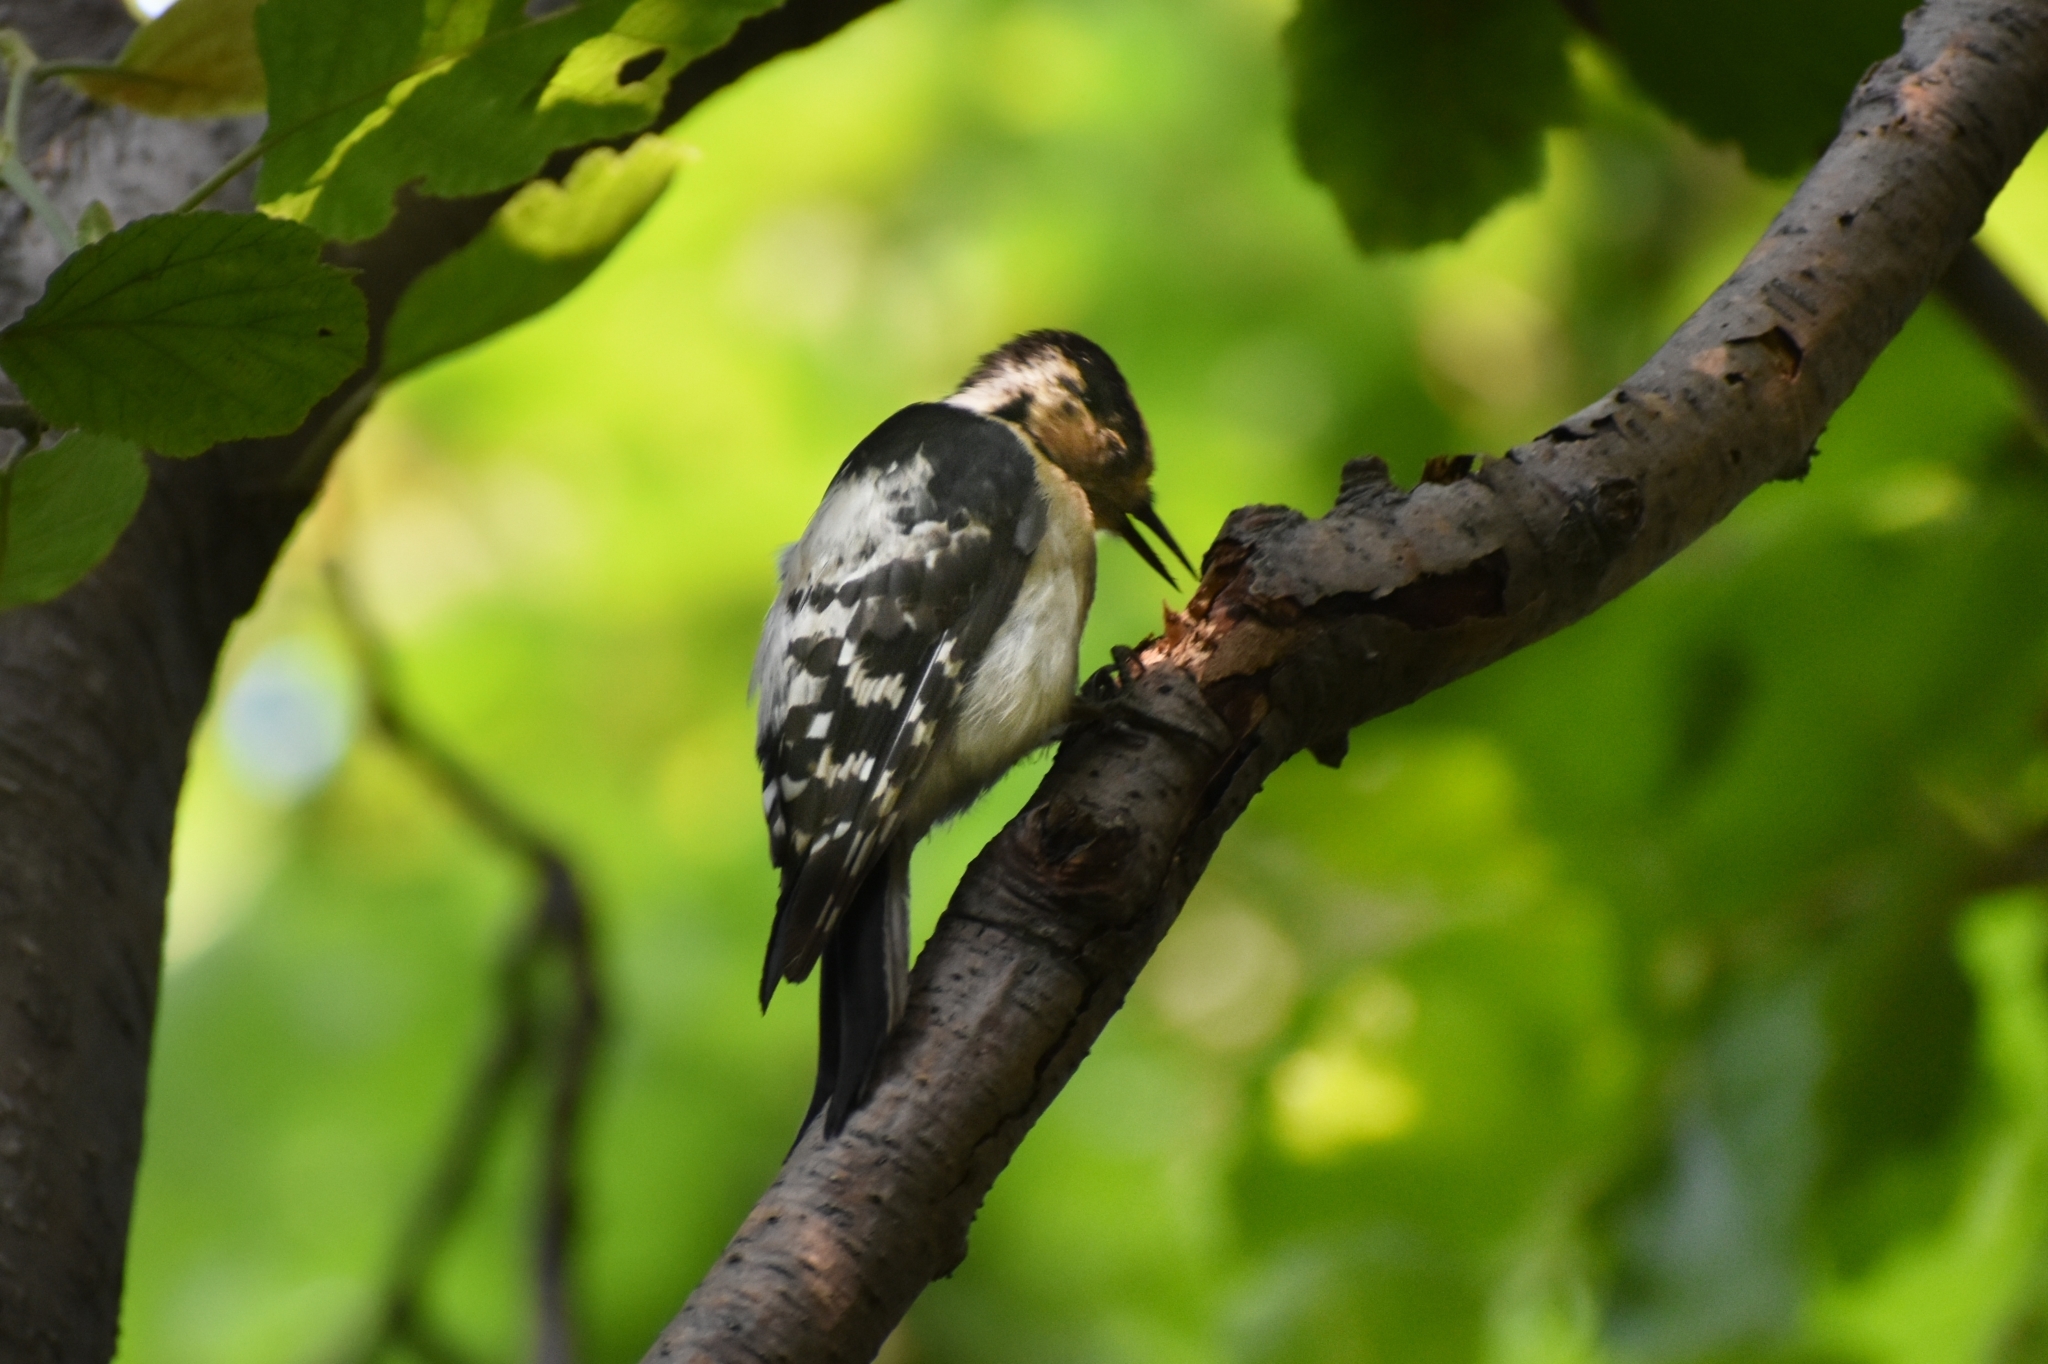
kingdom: Animalia
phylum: Chordata
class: Aves
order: Piciformes
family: Picidae
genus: Dryobates
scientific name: Dryobates minor
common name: Lesser spotted woodpecker
